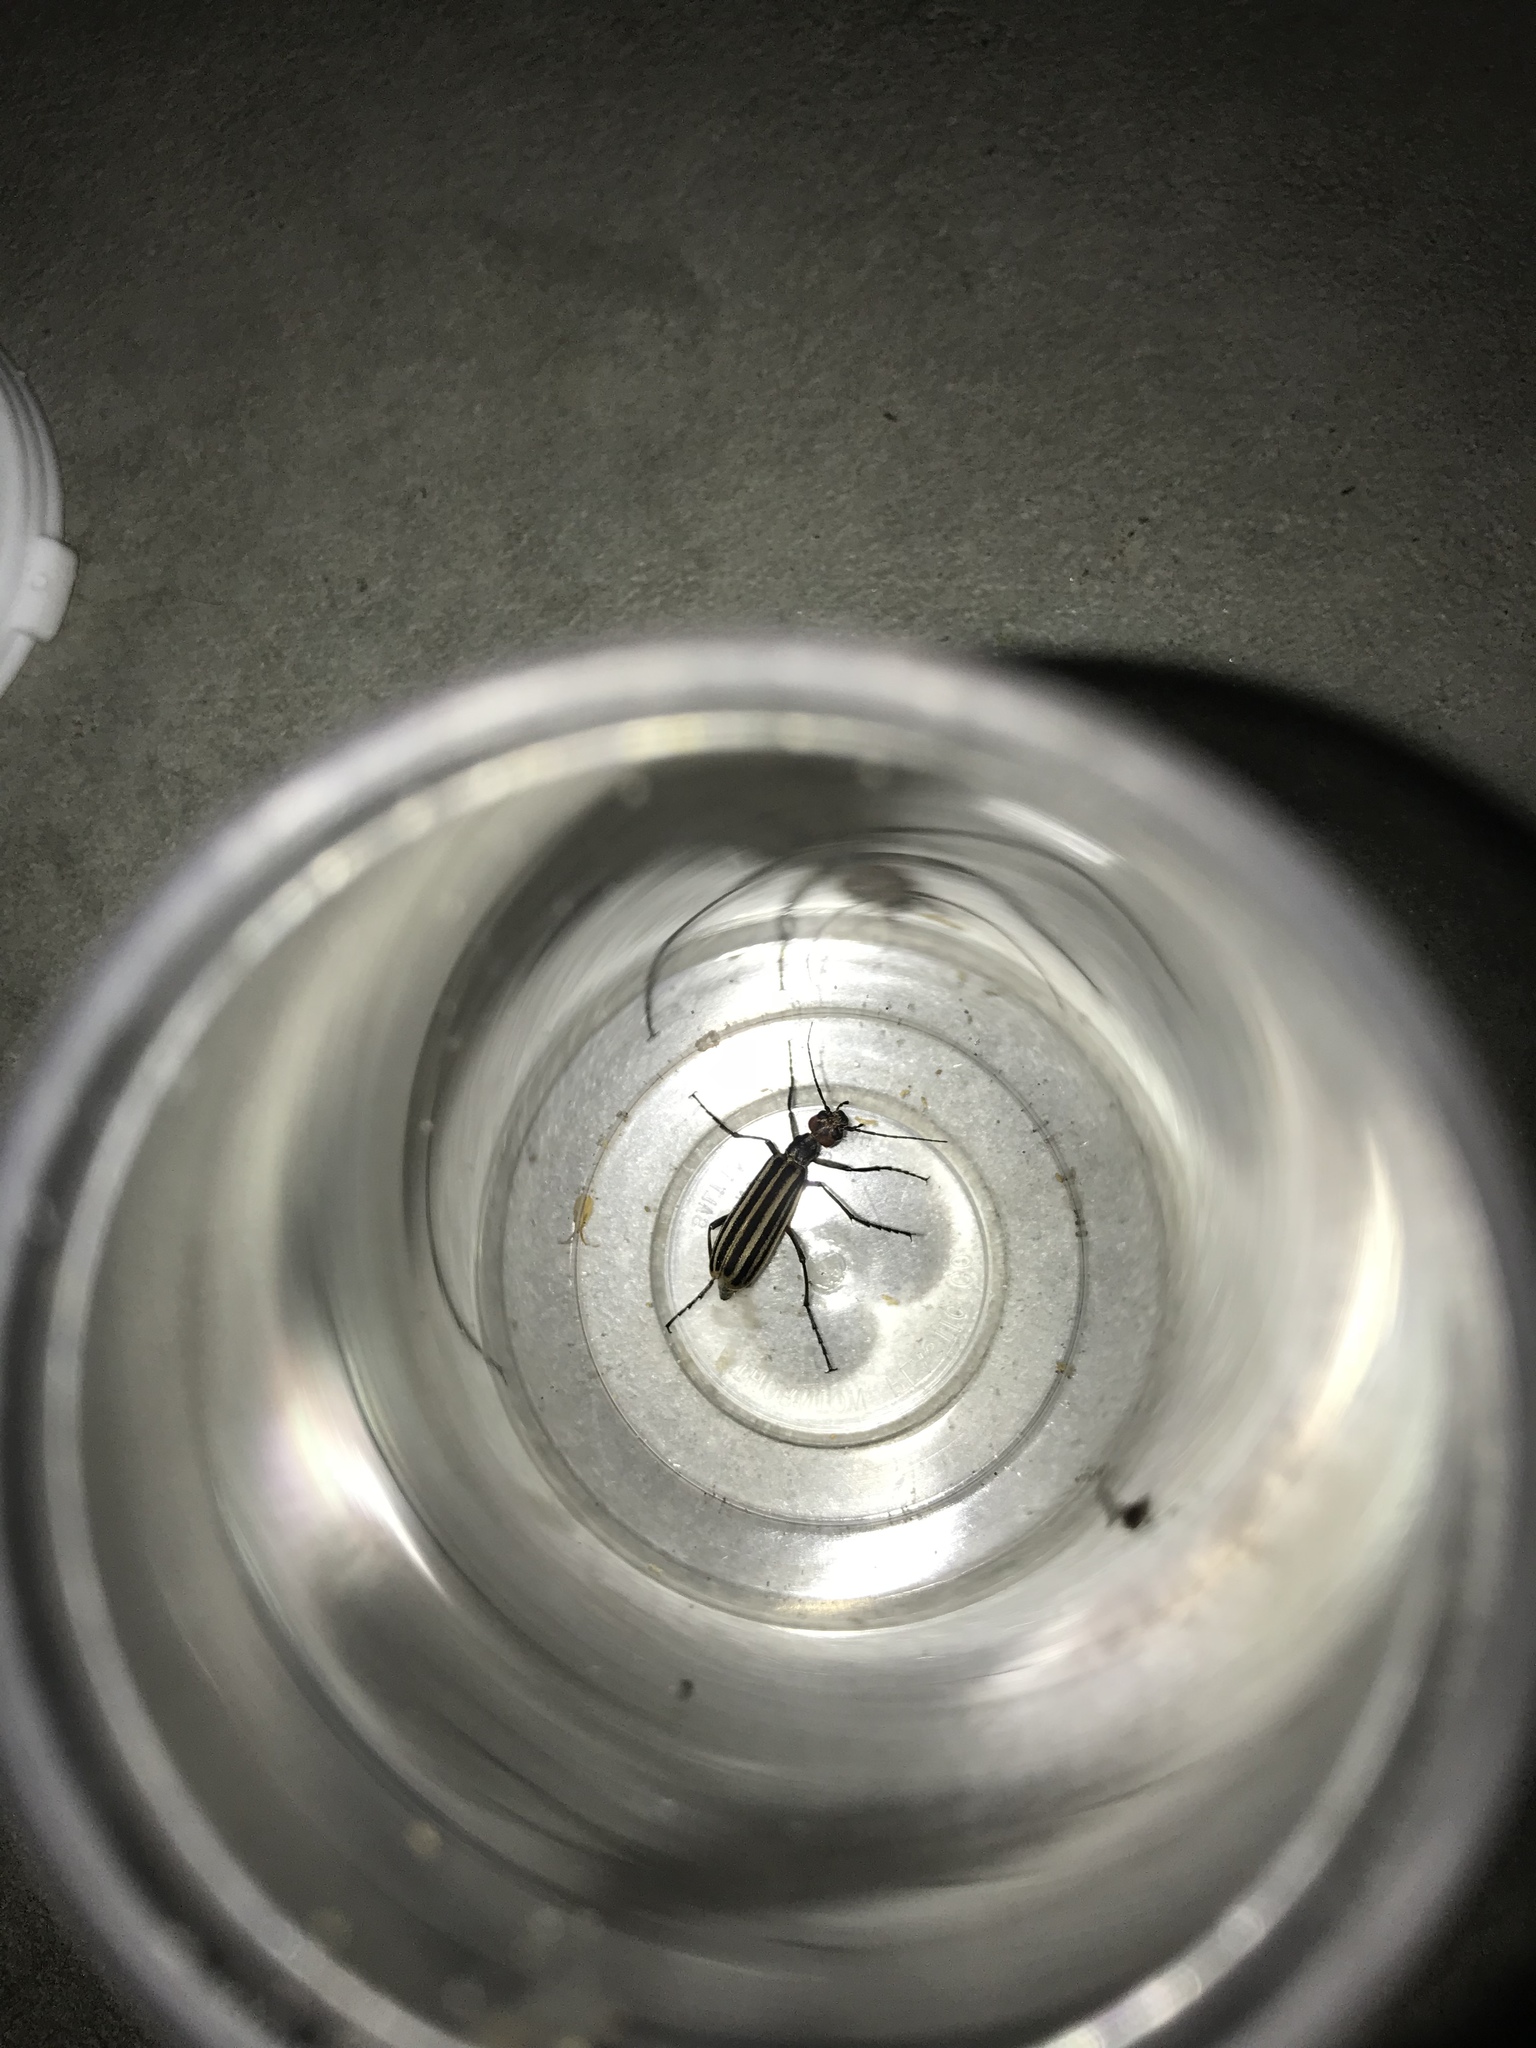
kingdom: Animalia
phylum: Arthropoda
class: Insecta
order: Coleoptera
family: Meloidae
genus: Epicauta
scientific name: Epicauta vittata
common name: Old-fashioned potato beetle
